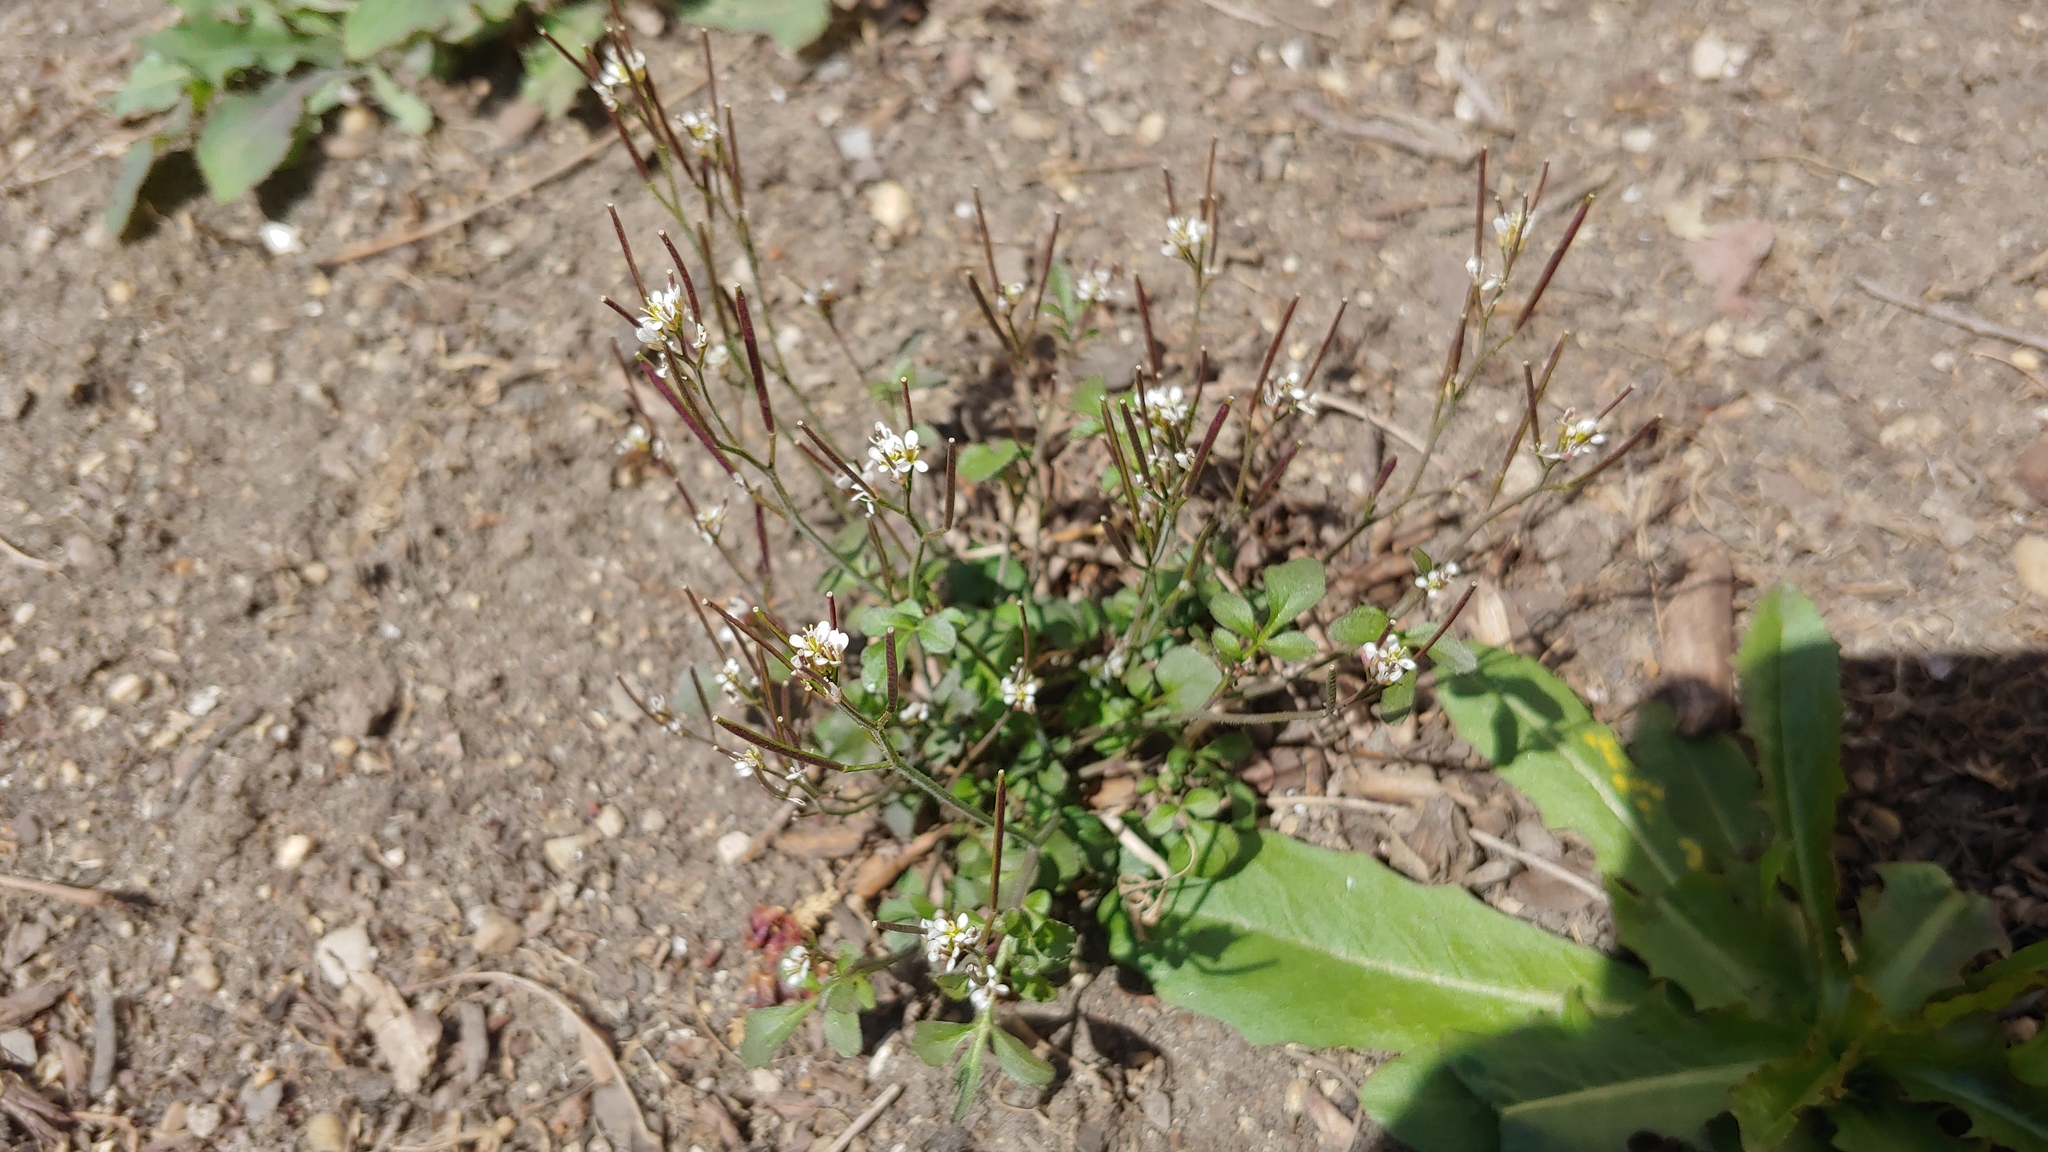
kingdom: Plantae
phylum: Tracheophyta
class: Magnoliopsida
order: Brassicales
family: Brassicaceae
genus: Cardamine
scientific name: Cardamine hirsuta
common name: Hairy bittercress
